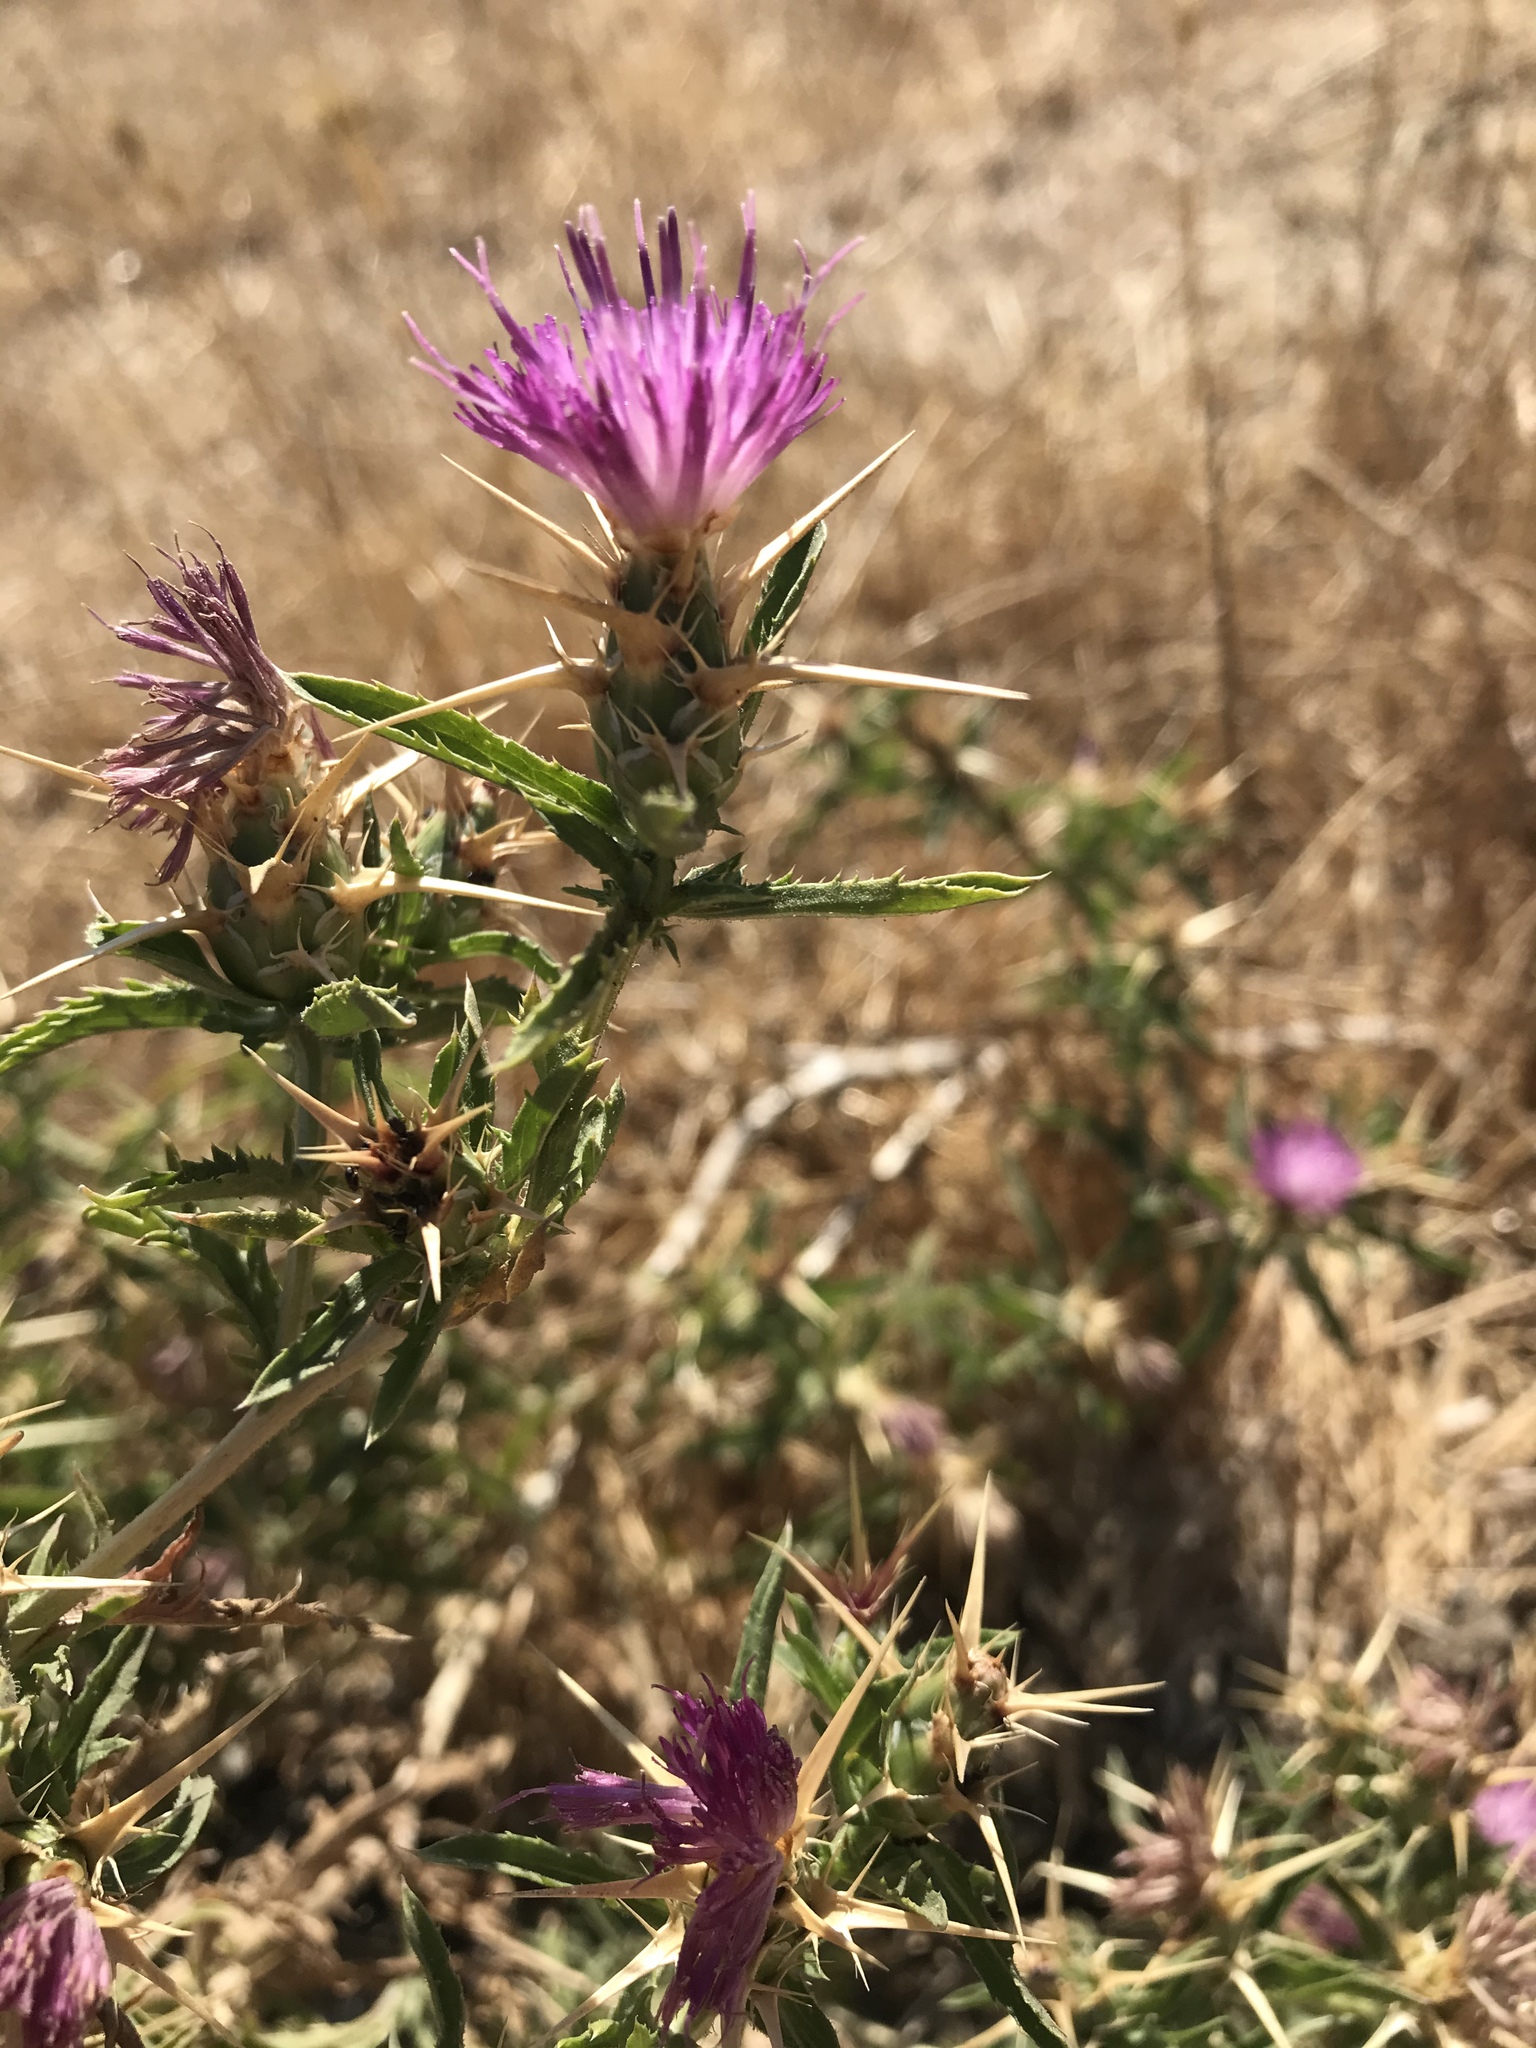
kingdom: Plantae
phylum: Tracheophyta
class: Magnoliopsida
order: Asterales
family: Asteraceae
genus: Centaurea
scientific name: Centaurea calcitrapa
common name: Red star-thistle
